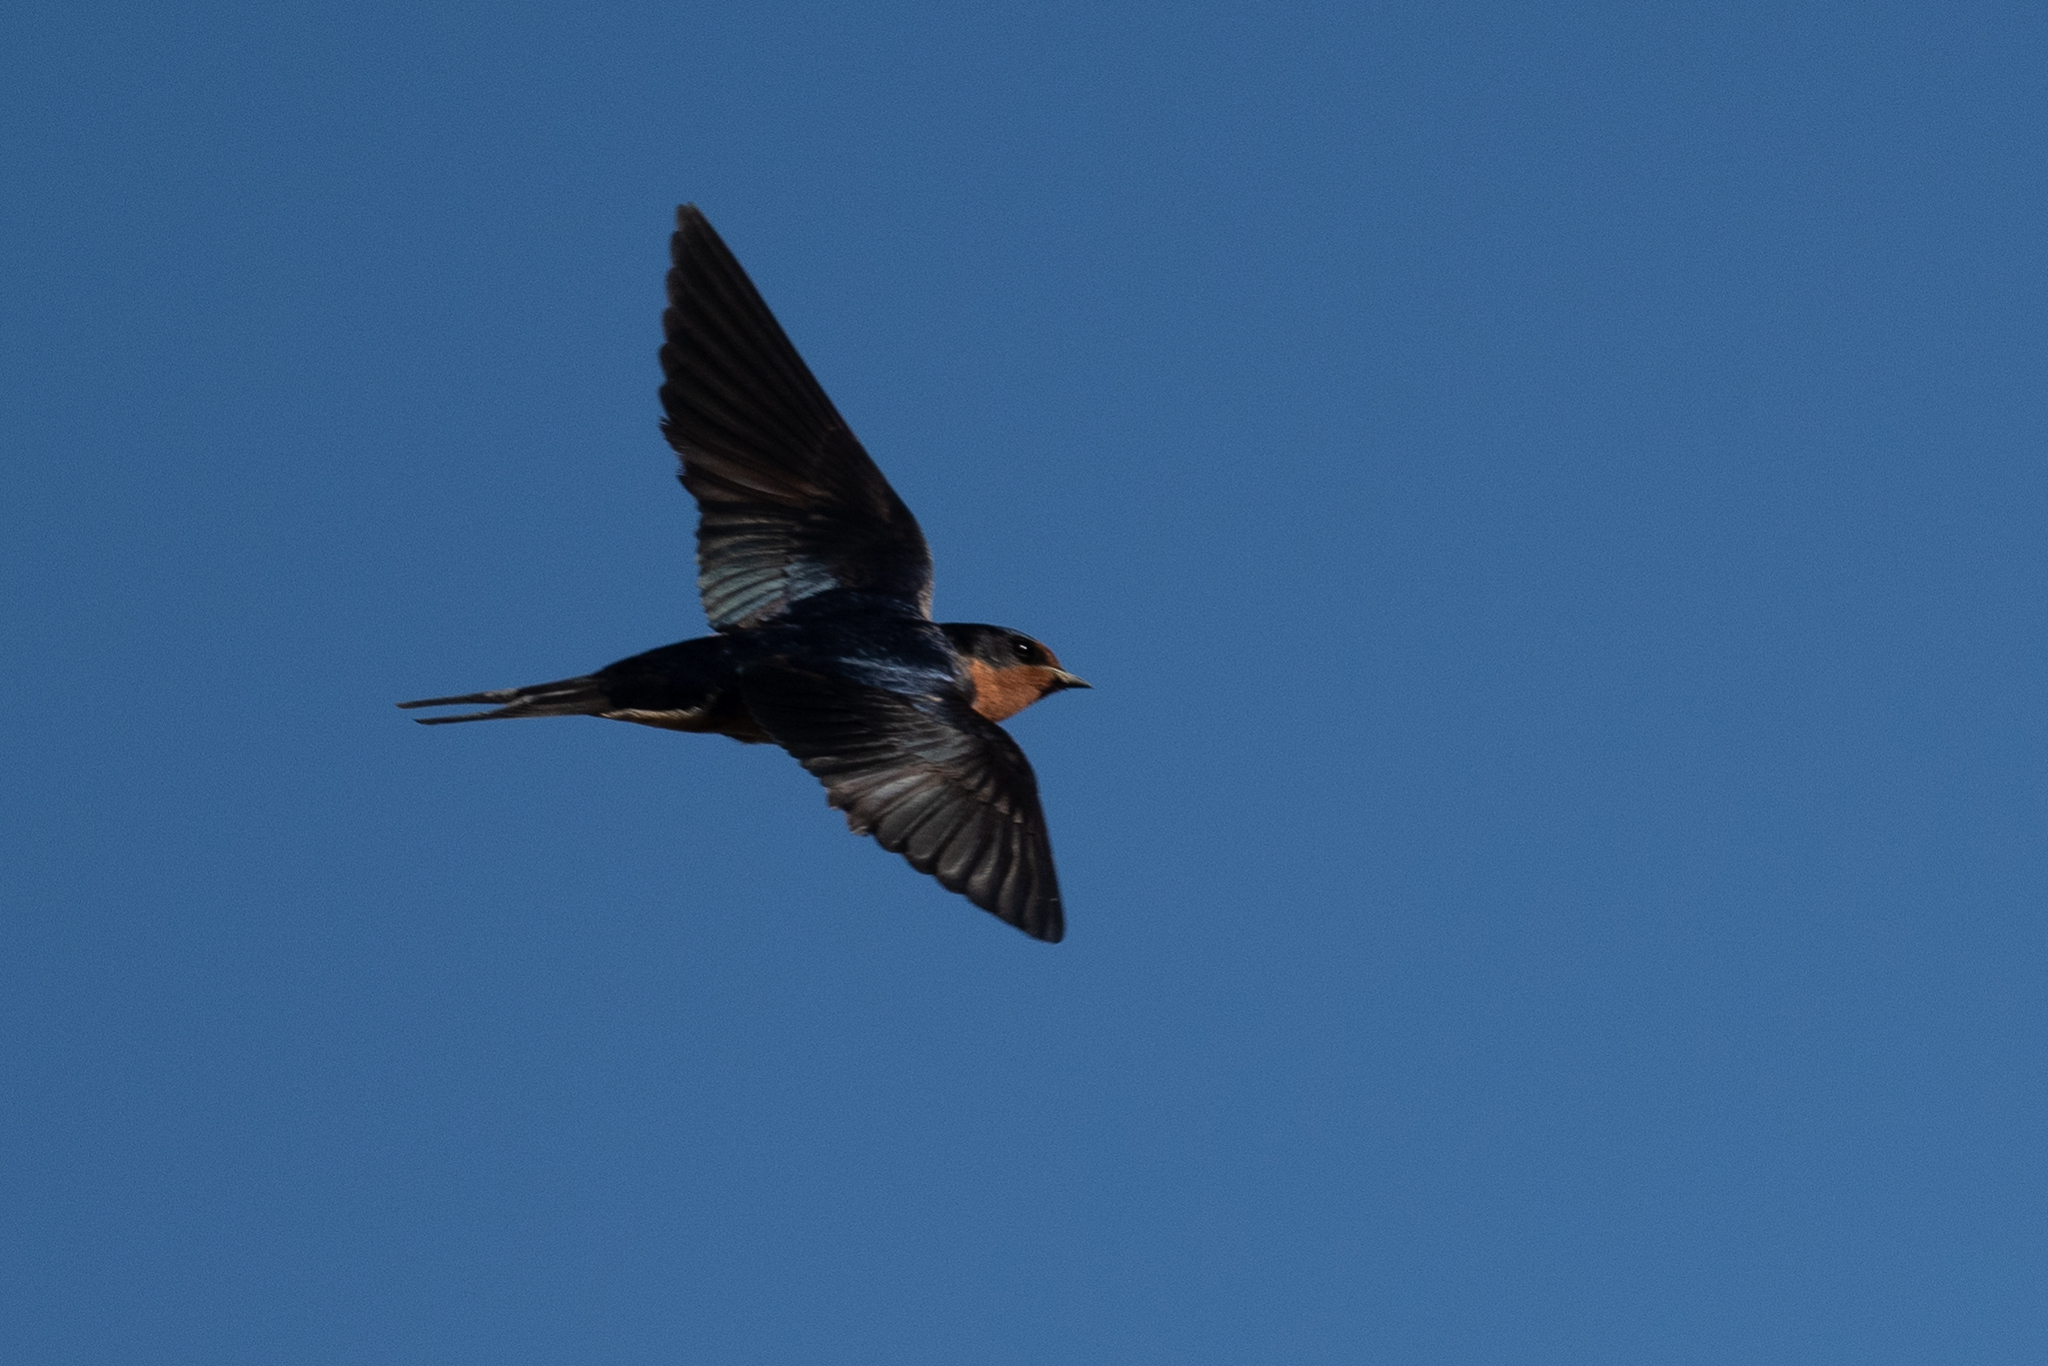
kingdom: Animalia
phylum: Chordata
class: Aves
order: Passeriformes
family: Hirundinidae
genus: Hirundo
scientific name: Hirundo rustica
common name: Barn swallow
